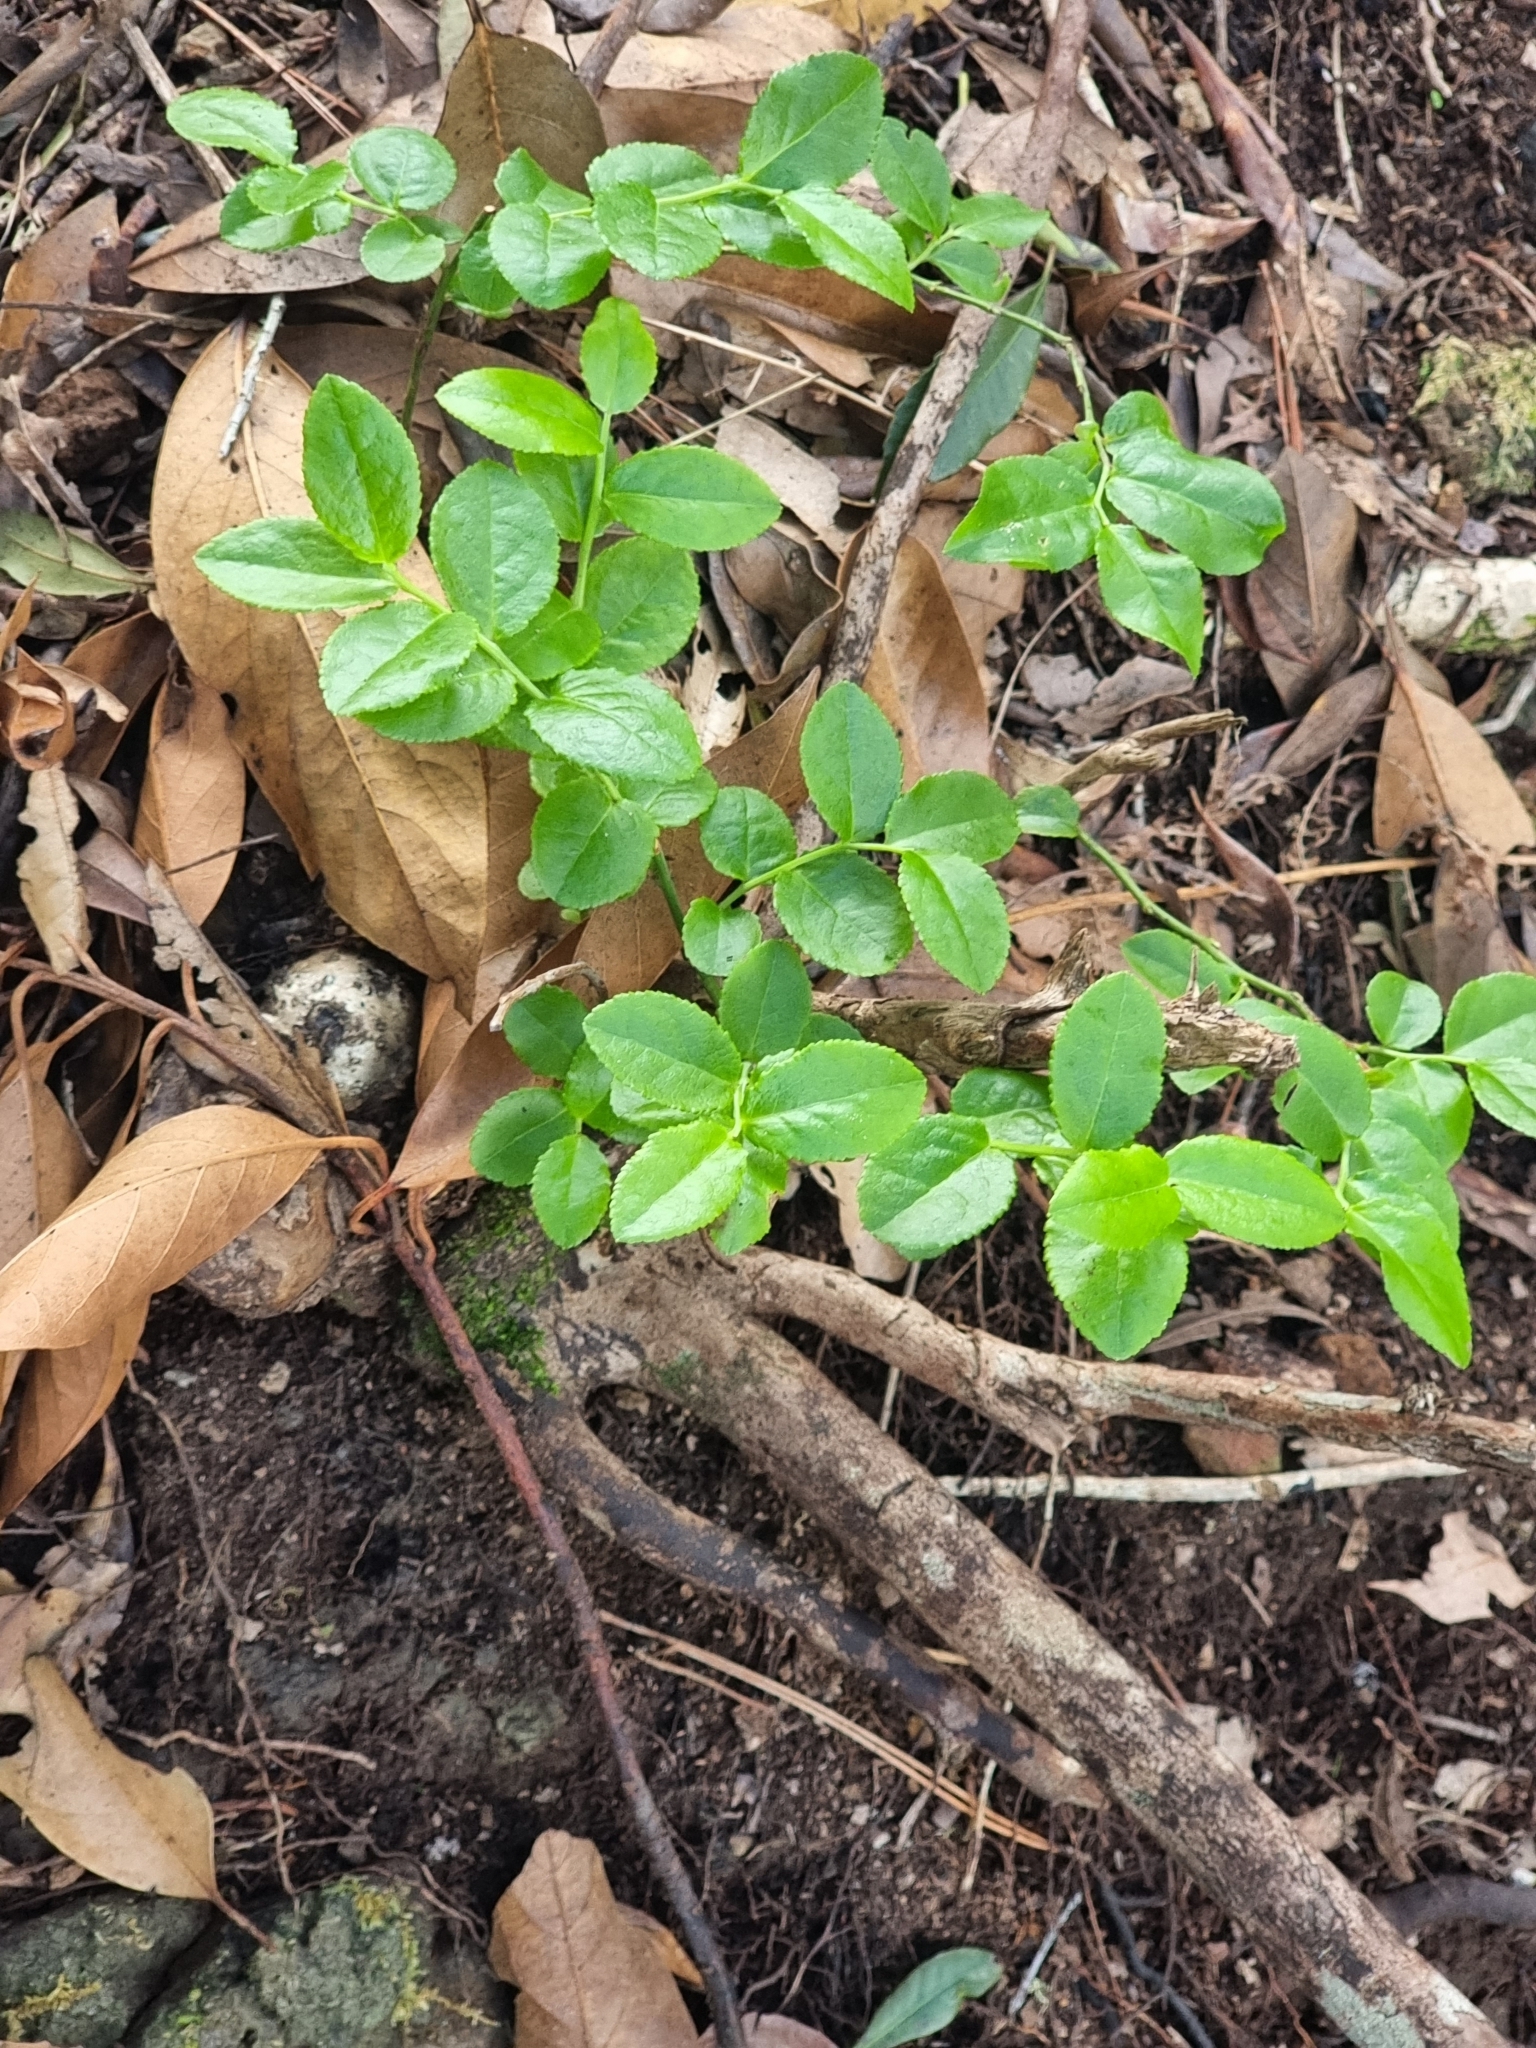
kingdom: Plantae
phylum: Tracheophyta
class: Magnoliopsida
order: Ericales
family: Ericaceae
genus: Vaccinium
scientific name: Vaccinium padifolium
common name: Madeiran blueberry
